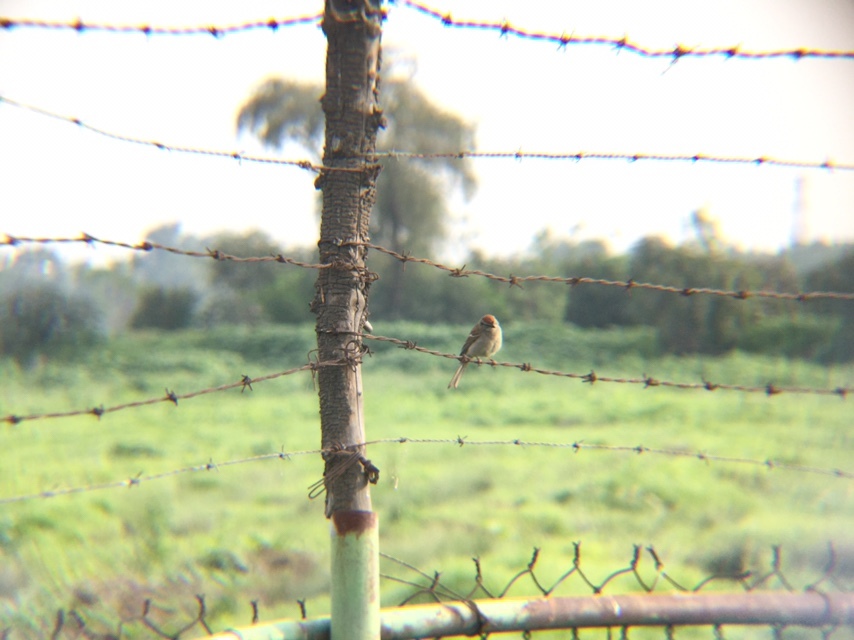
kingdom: Animalia
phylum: Chordata
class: Aves
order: Passeriformes
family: Passerellidae
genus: Spizella
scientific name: Spizella passerina
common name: Chipping sparrow
